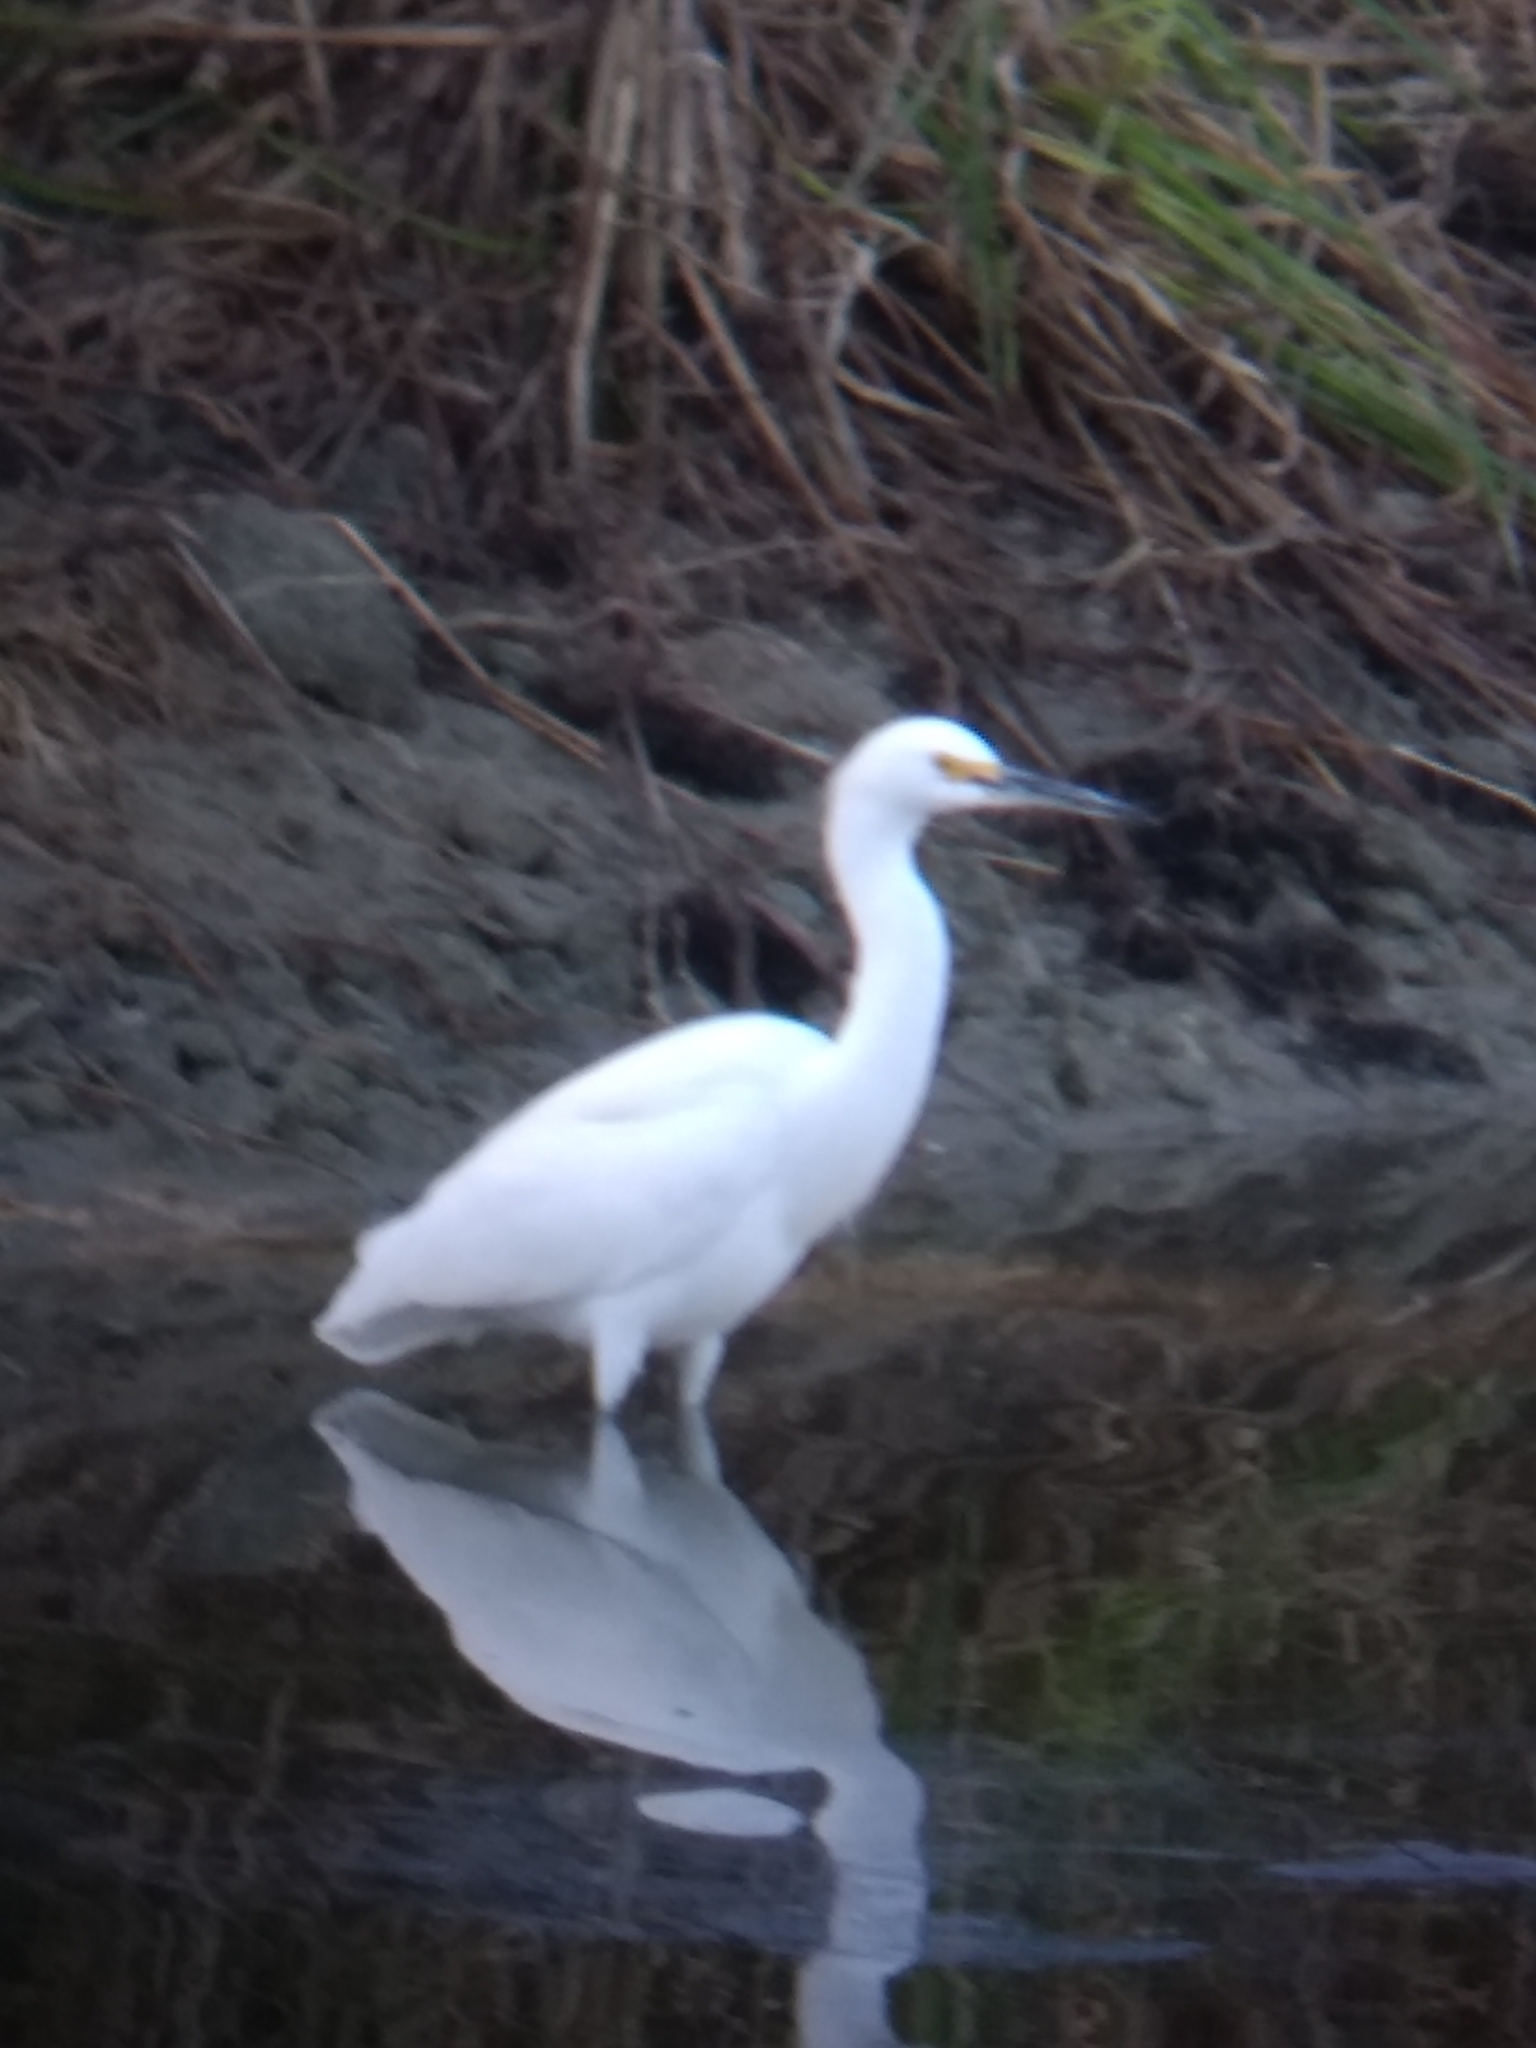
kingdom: Animalia
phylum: Chordata
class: Aves
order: Pelecaniformes
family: Ardeidae
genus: Egretta
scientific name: Egretta thula
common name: Snowy egret
